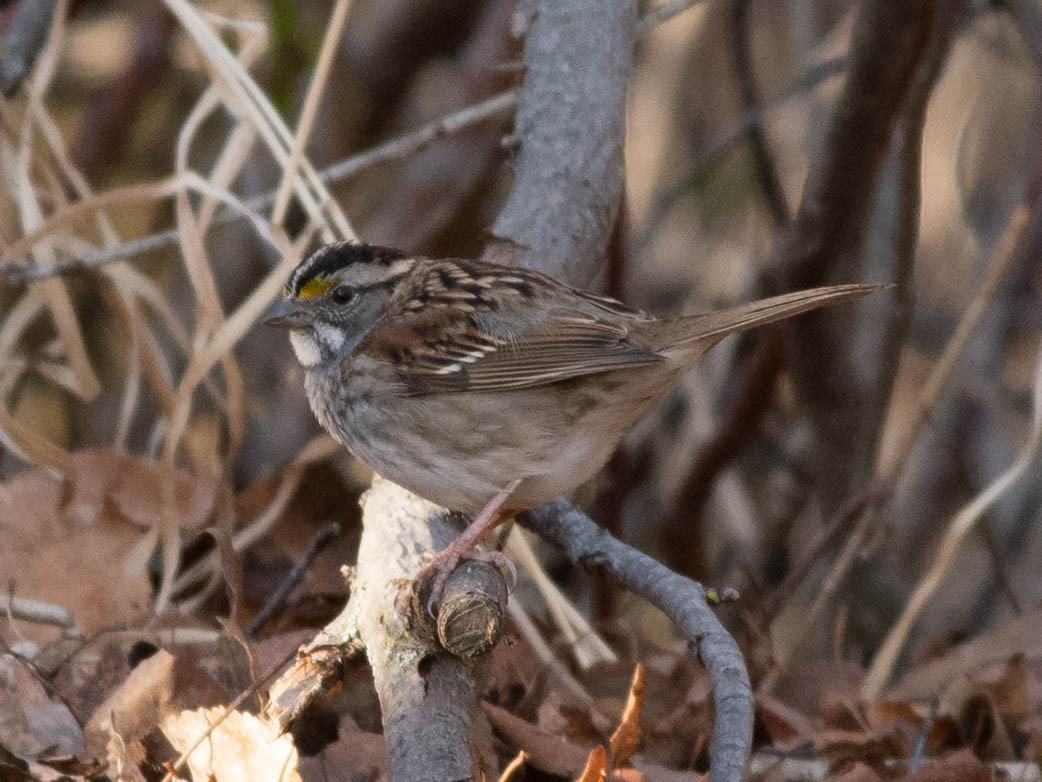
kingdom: Animalia
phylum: Chordata
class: Aves
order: Passeriformes
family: Passerellidae
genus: Zonotrichia
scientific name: Zonotrichia albicollis
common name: White-throated sparrow
